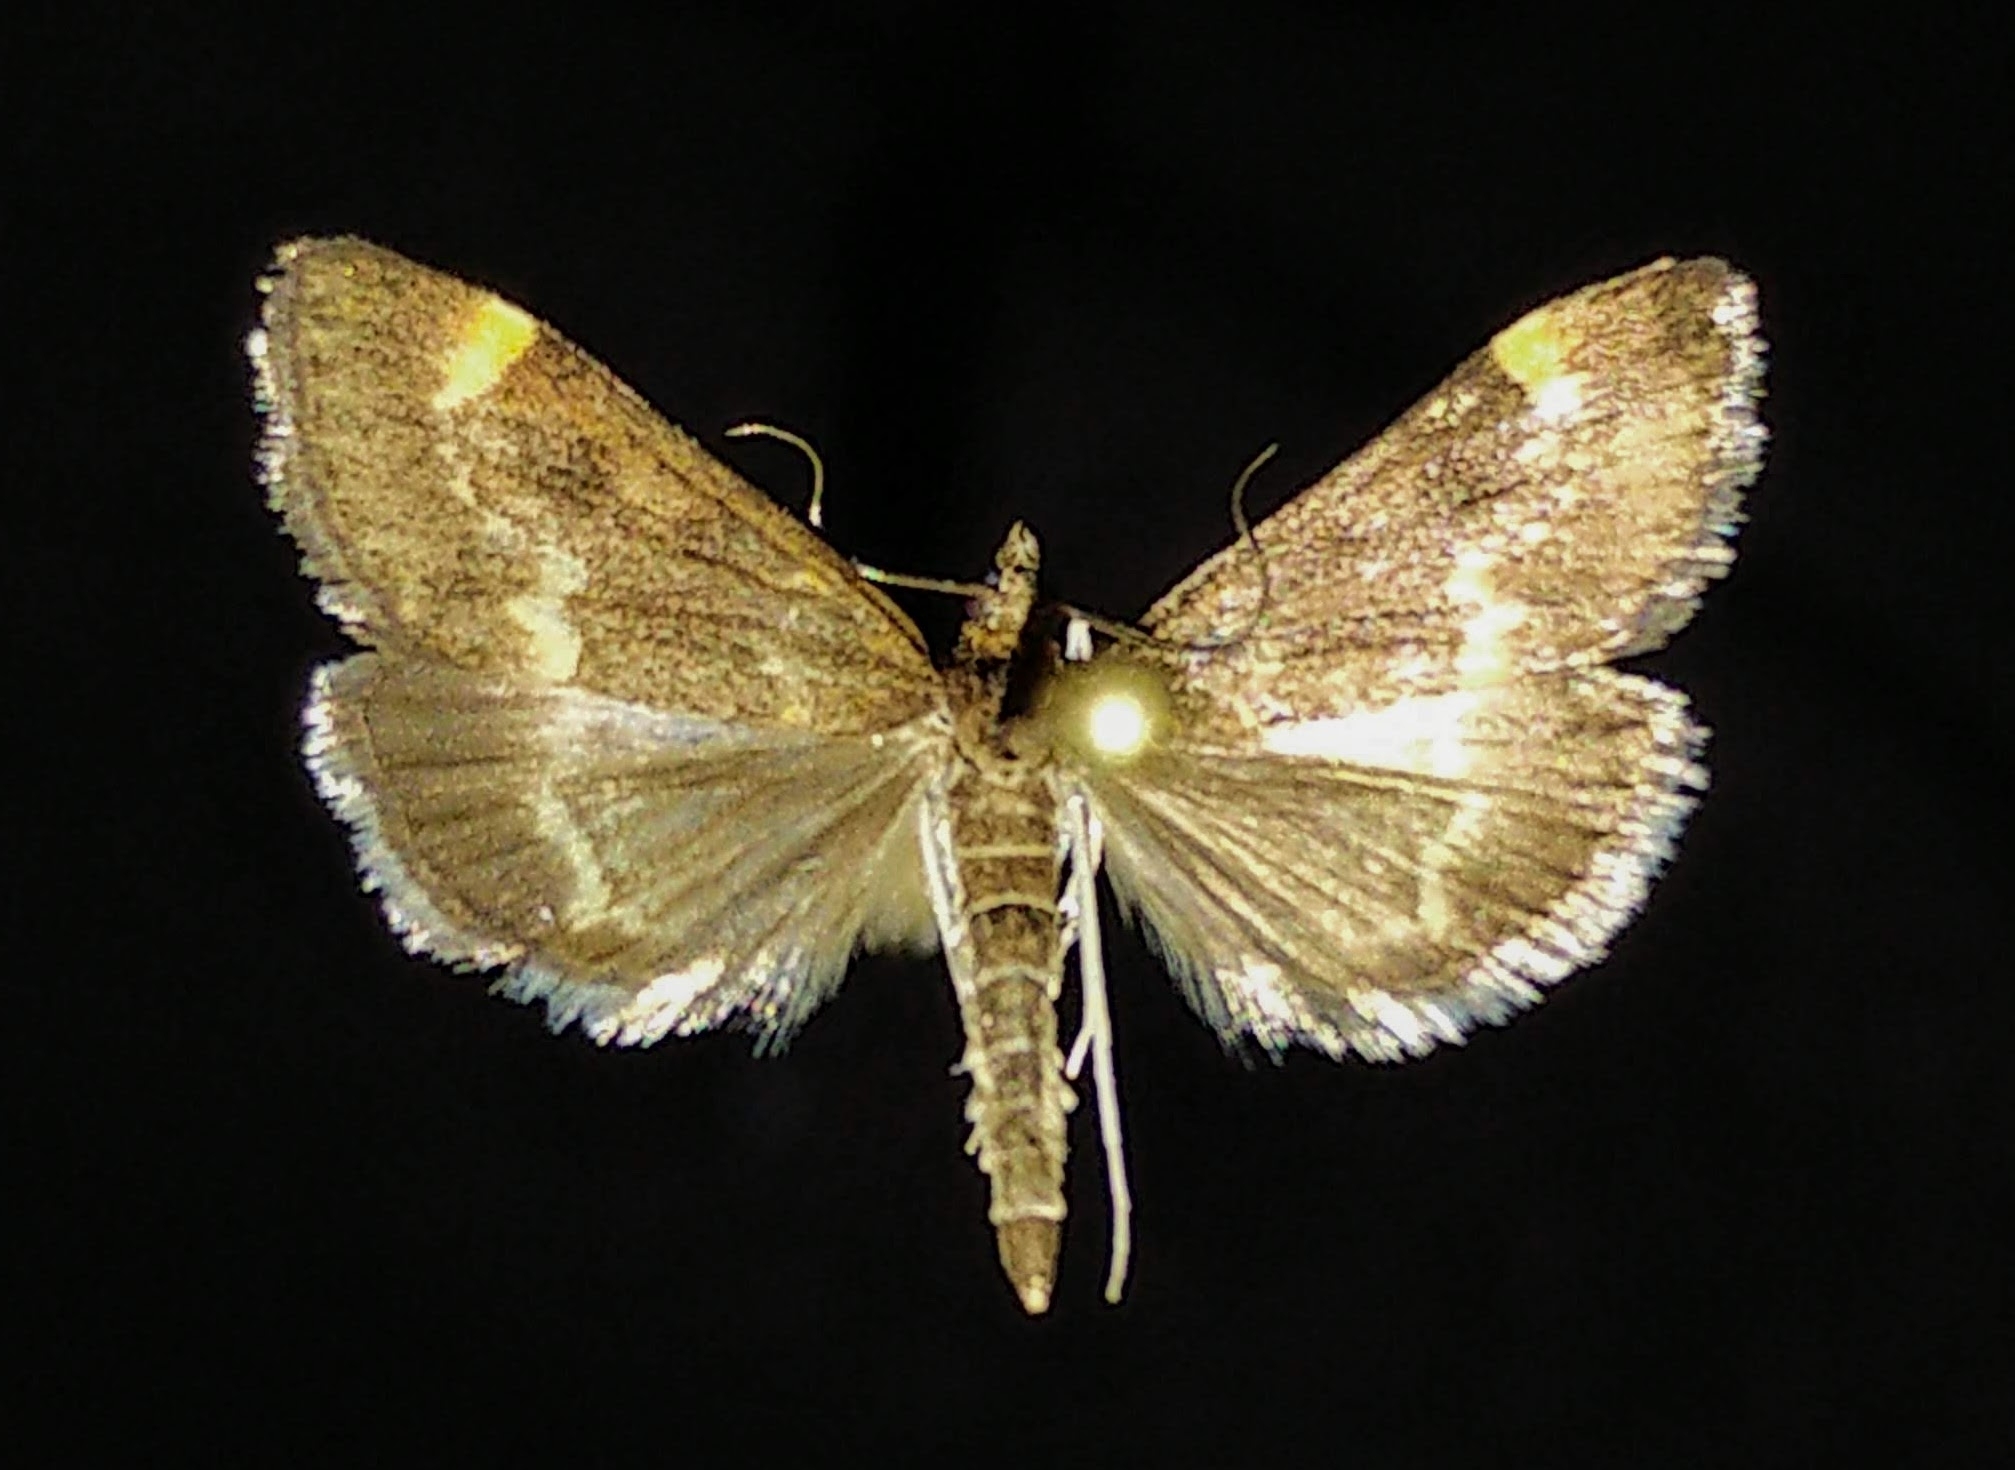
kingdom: Animalia
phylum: Arthropoda
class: Insecta
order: Lepidoptera
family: Crambidae
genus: Pyrausta
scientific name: Pyrausta nicalis
